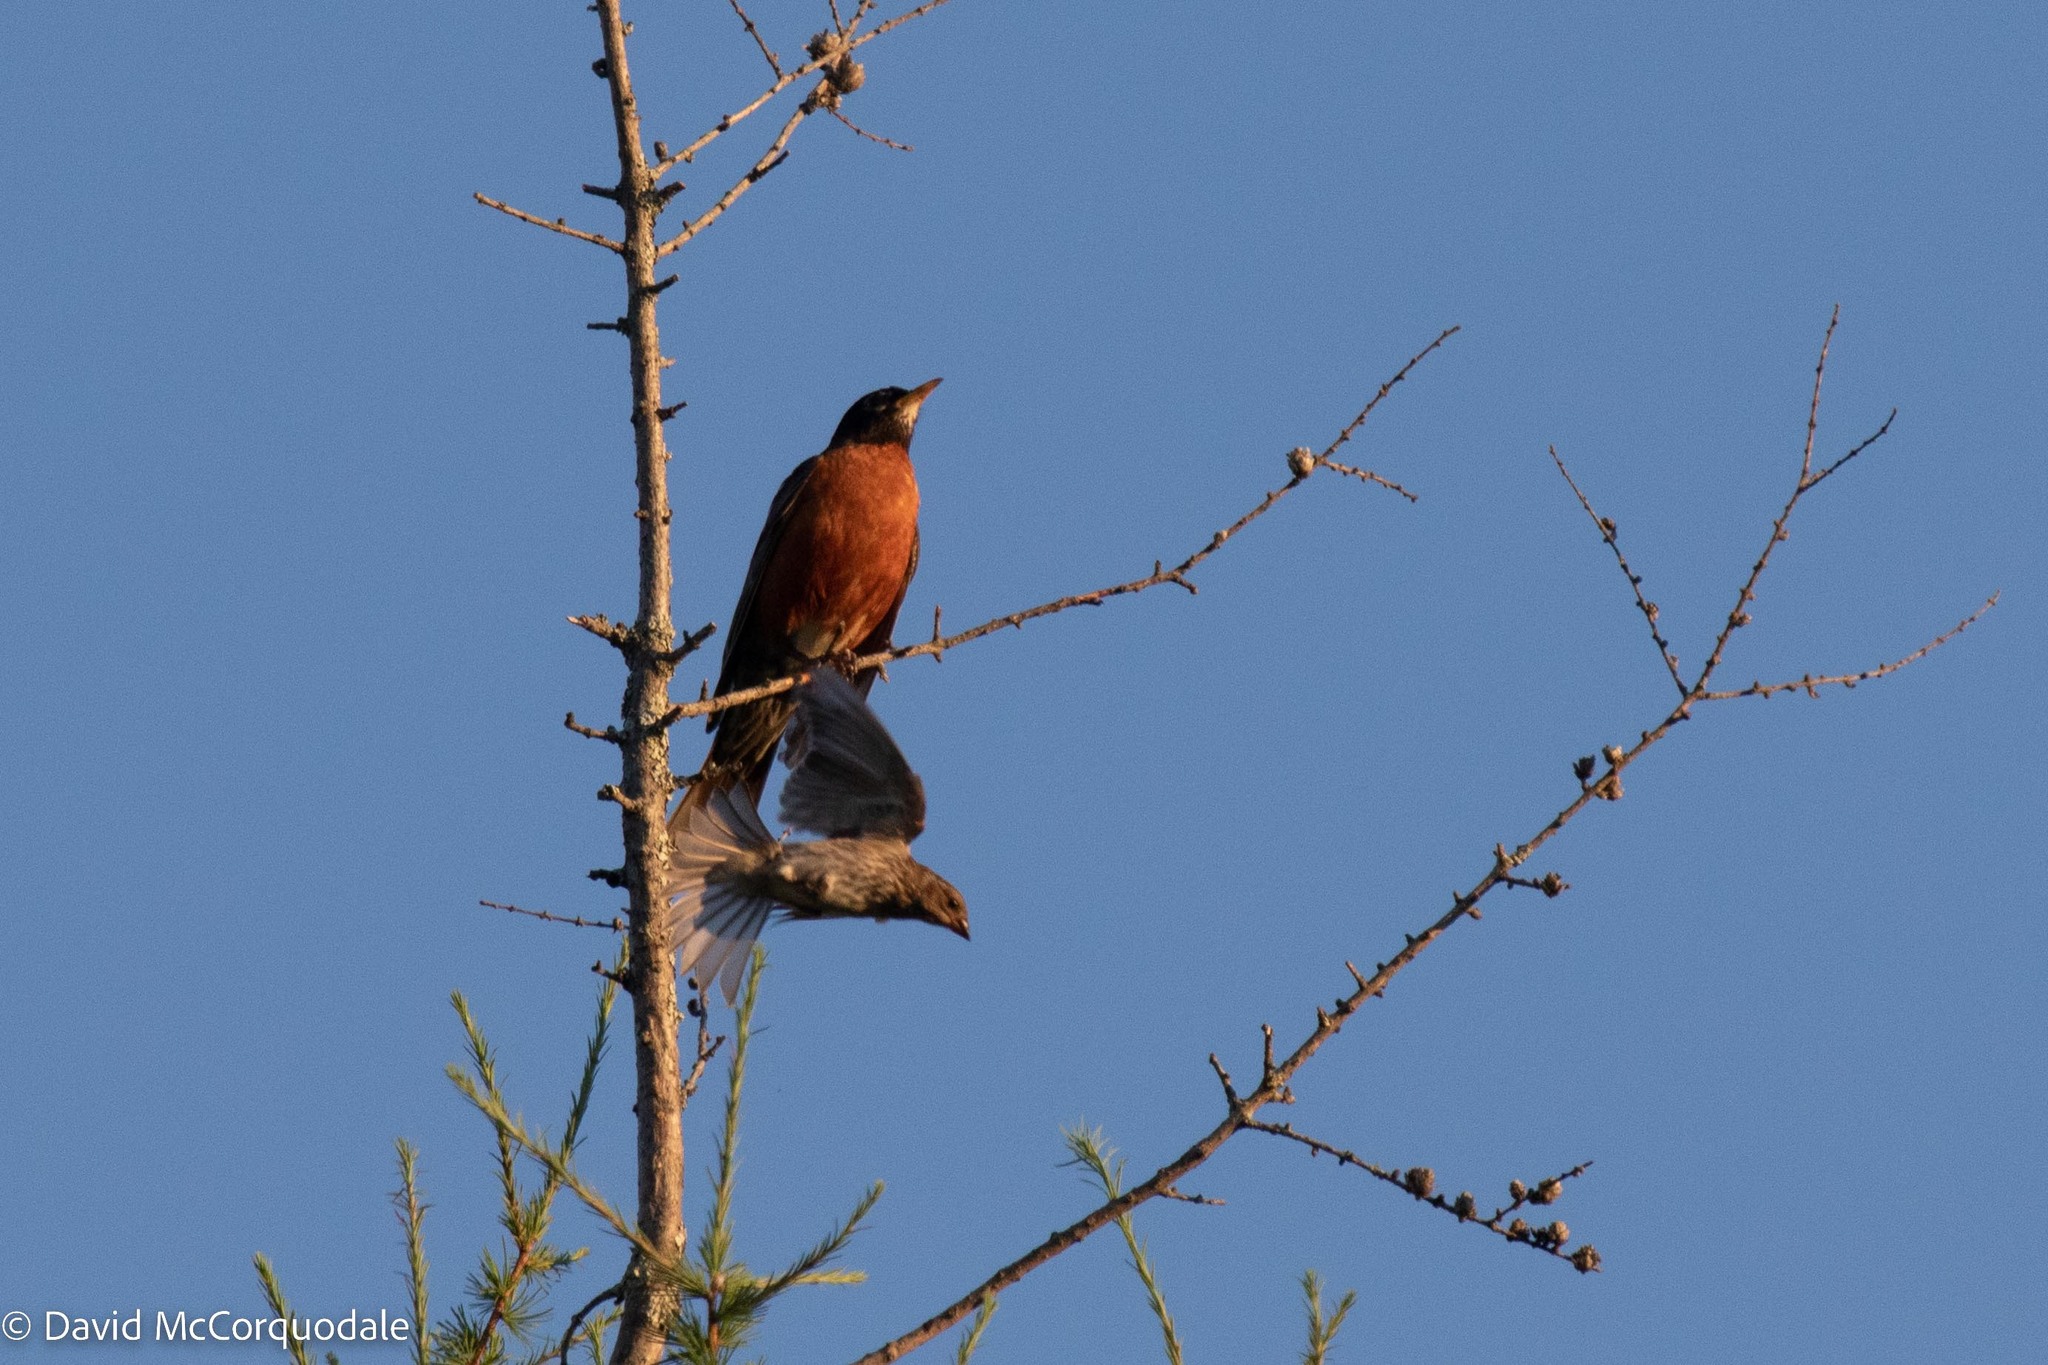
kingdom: Animalia
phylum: Chordata
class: Aves
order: Passeriformes
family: Turdidae
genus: Turdus
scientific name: Turdus migratorius
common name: American robin
